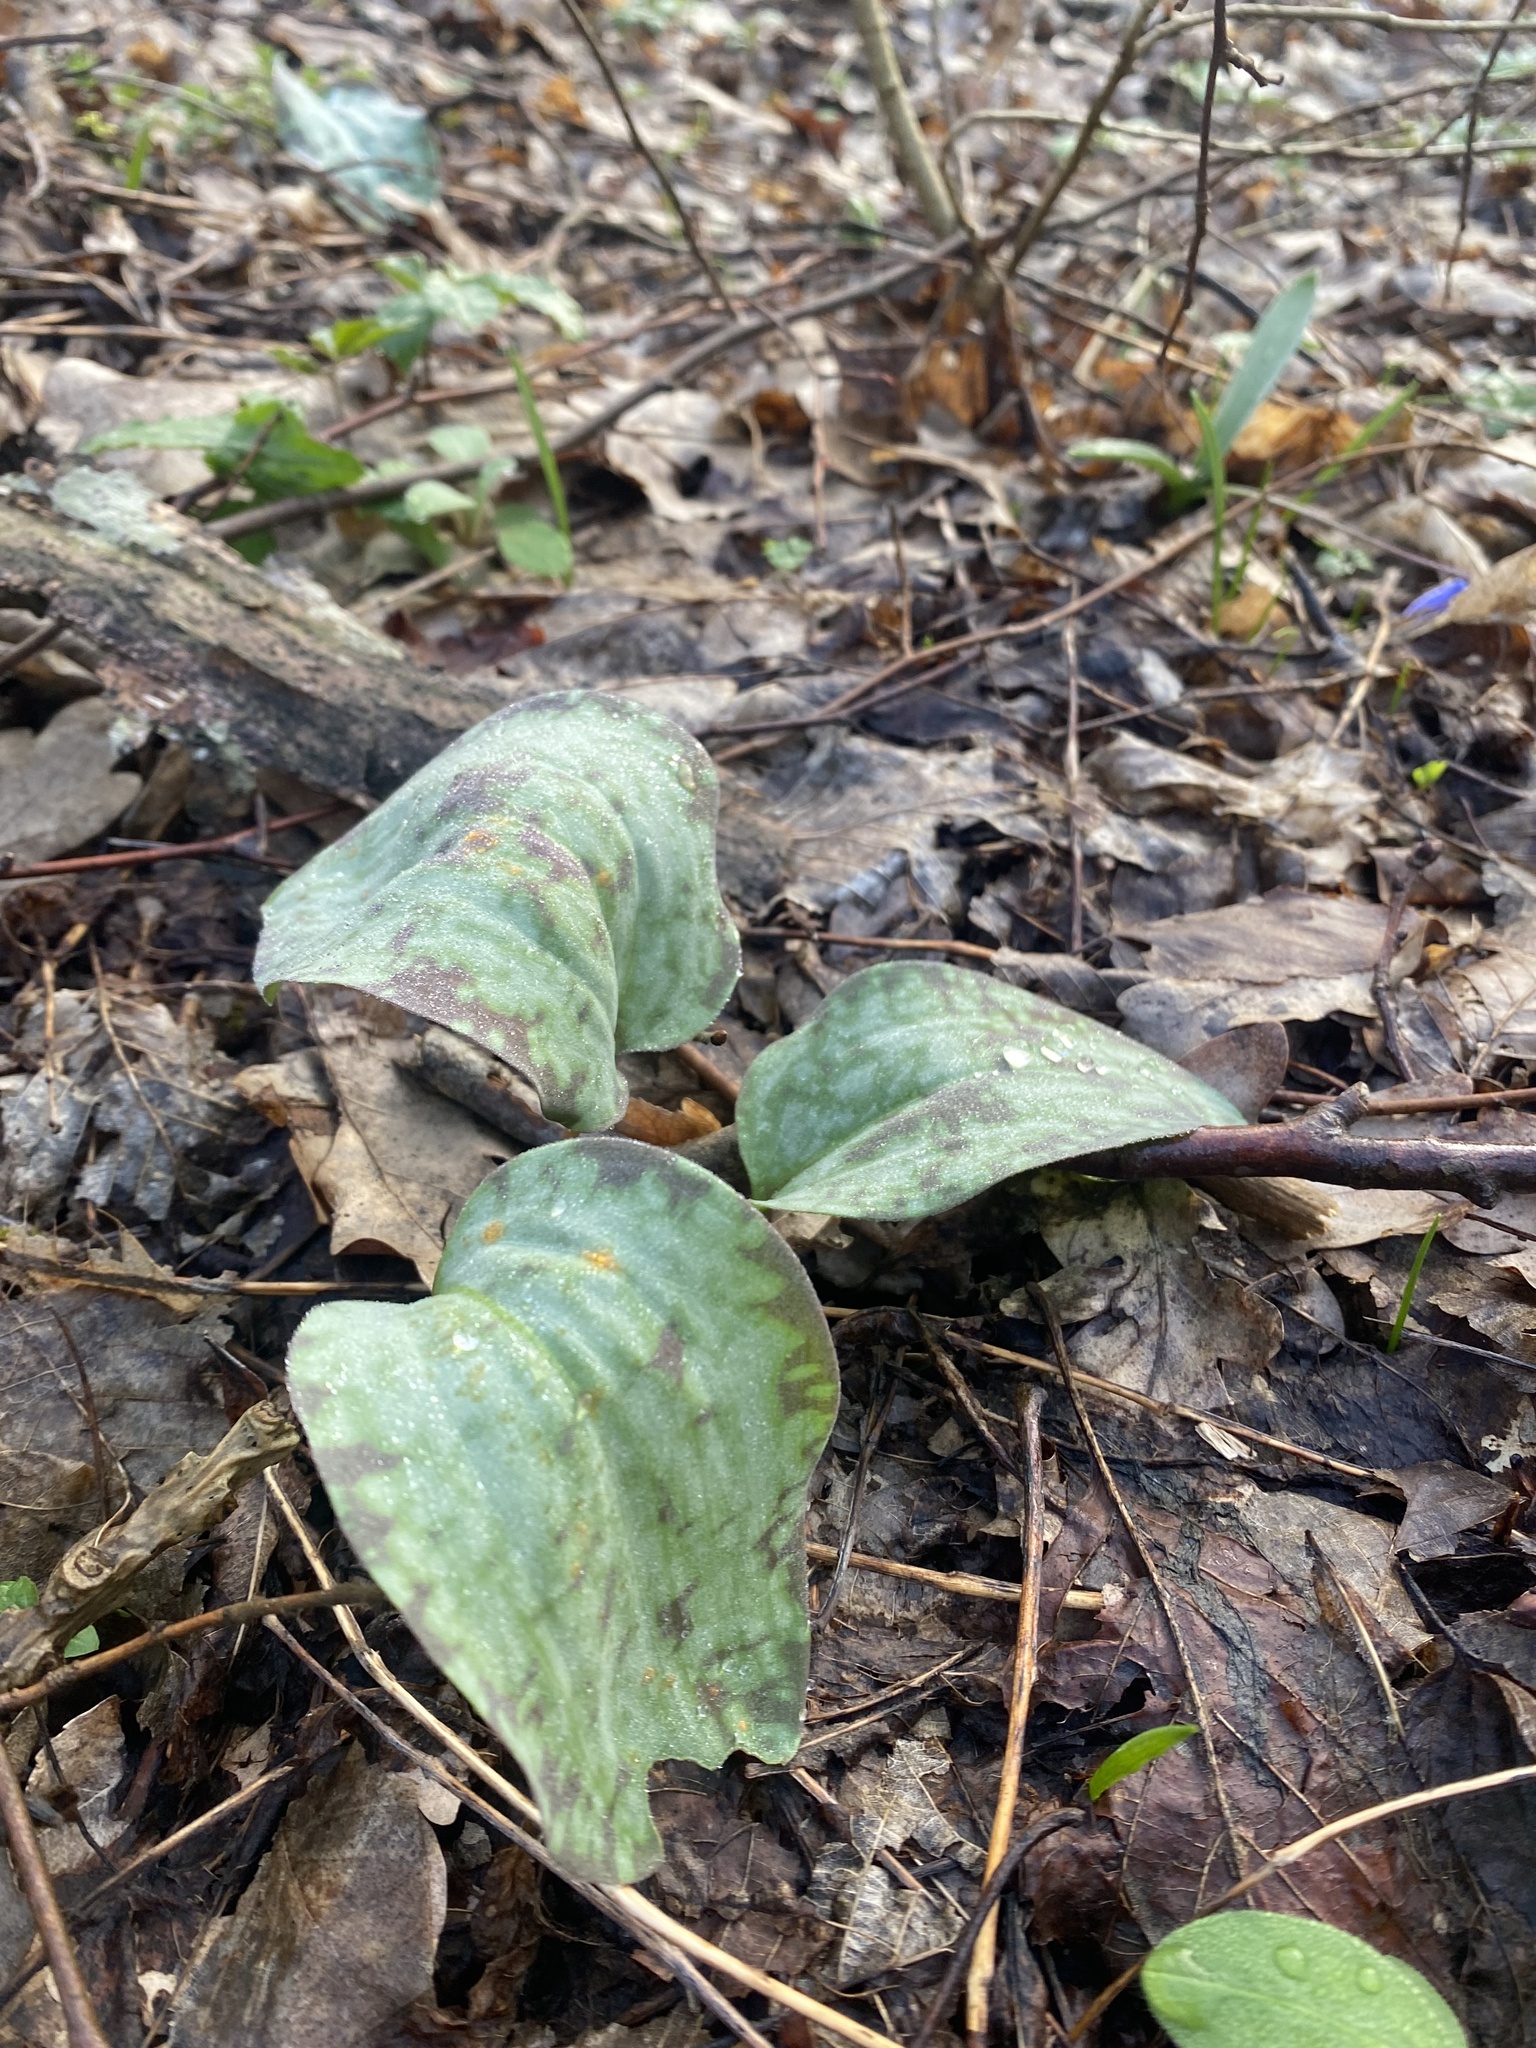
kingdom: Plantae
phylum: Tracheophyta
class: Liliopsida
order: Liliales
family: Liliaceae
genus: Erythronium
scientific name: Erythronium caucasicum
